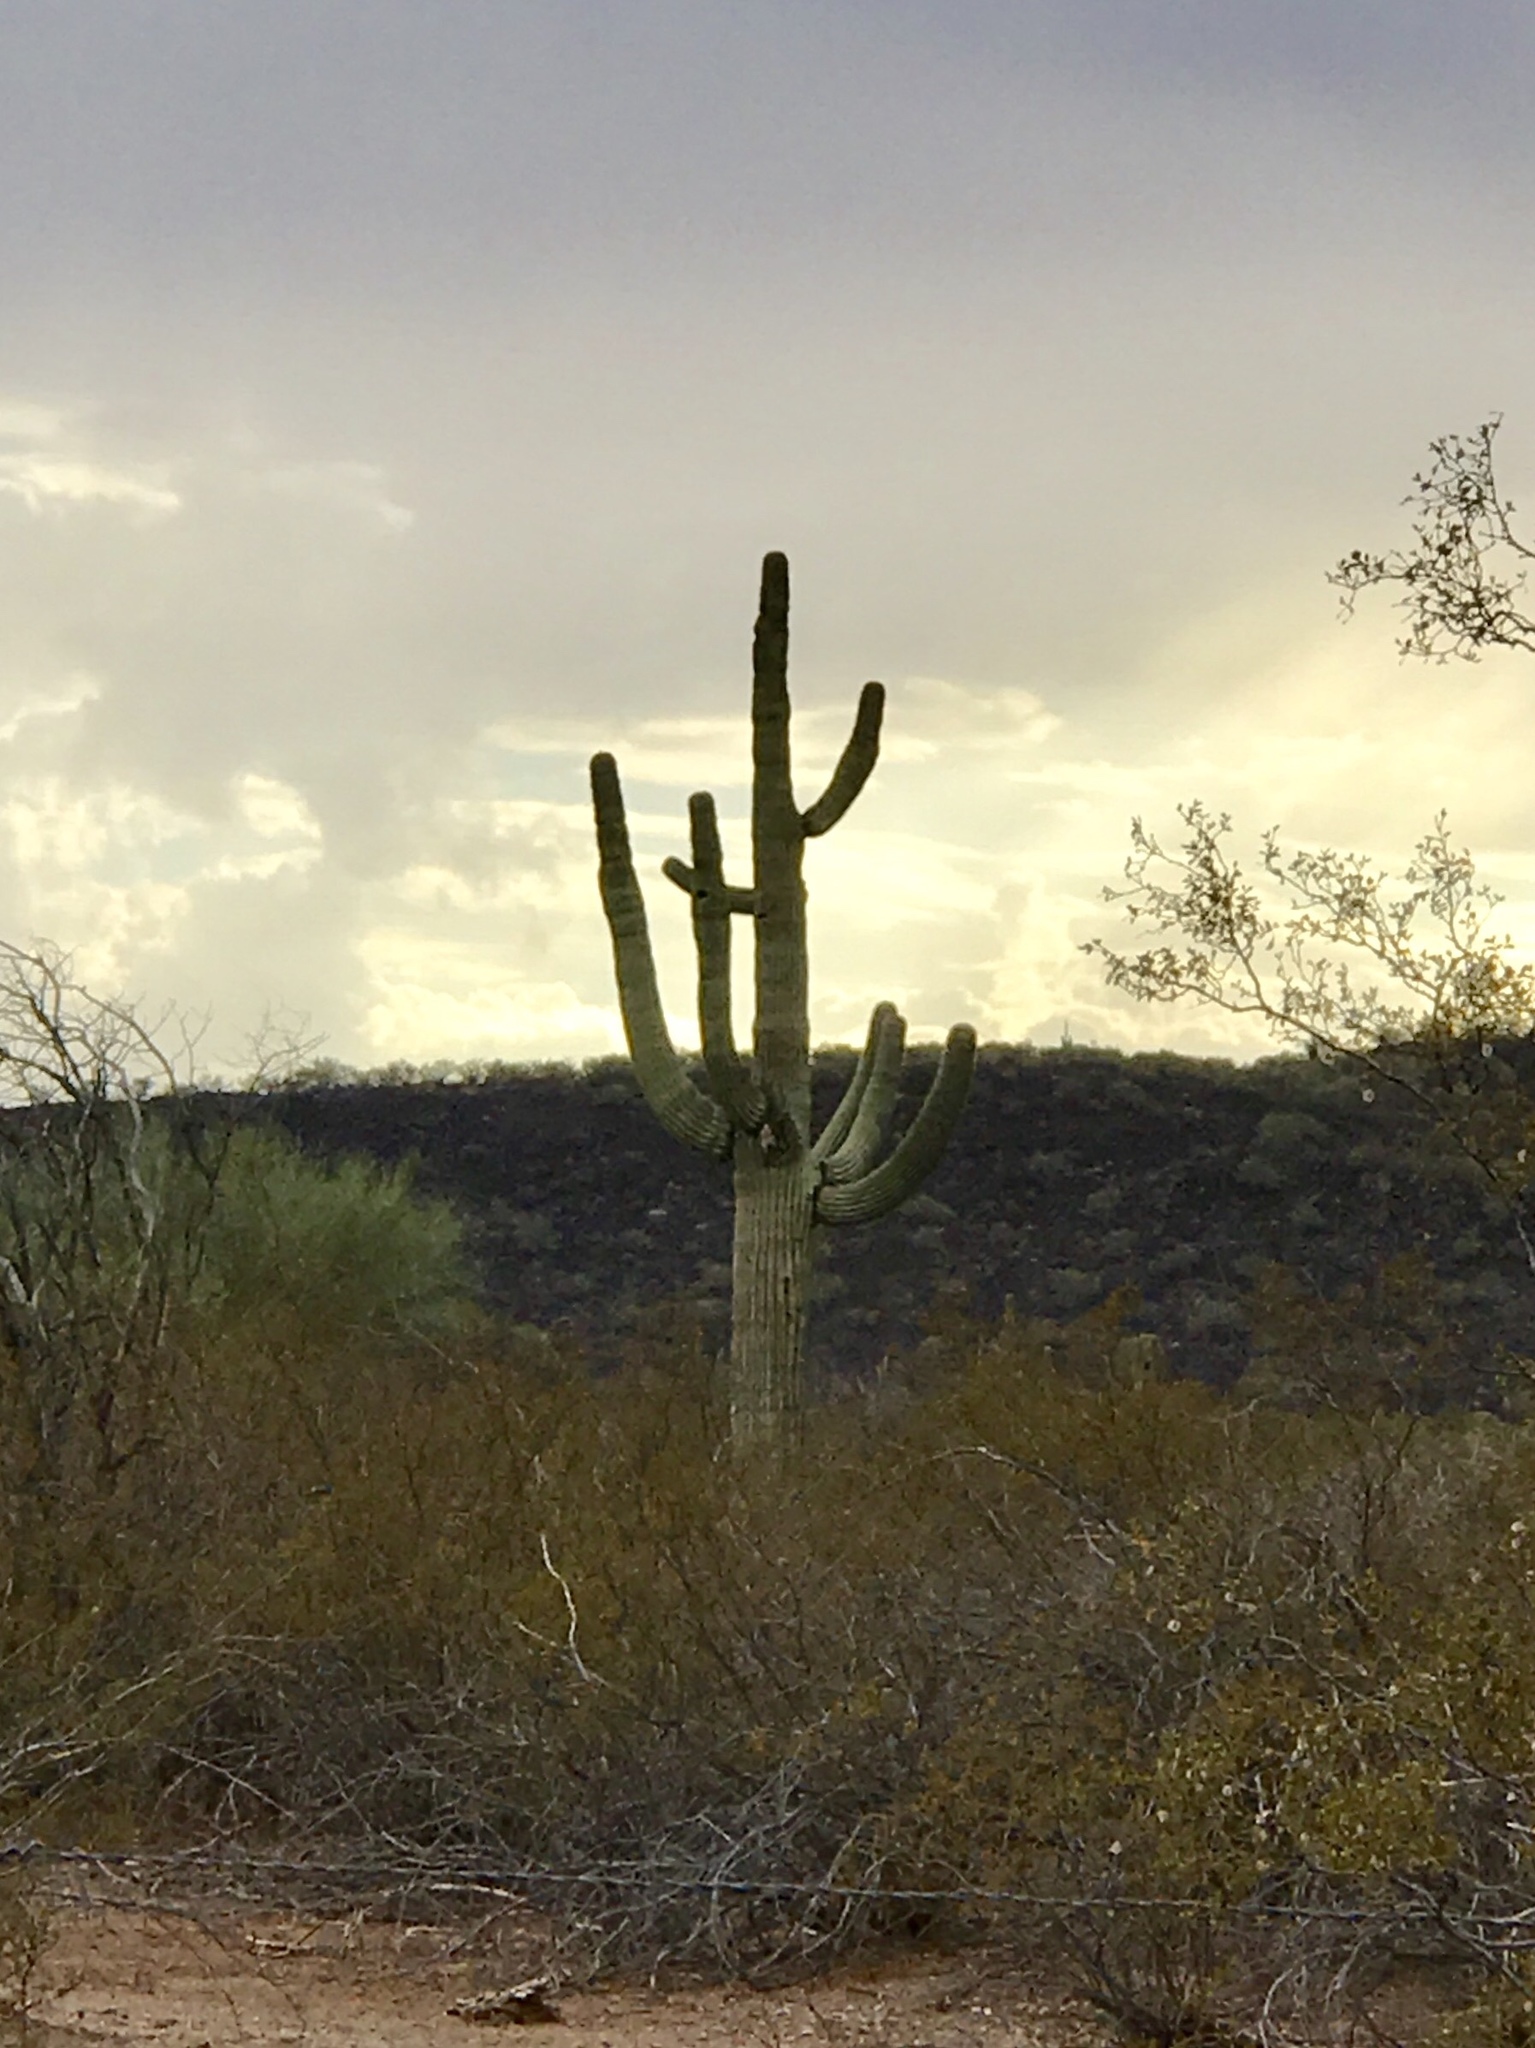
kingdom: Plantae
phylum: Tracheophyta
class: Magnoliopsida
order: Caryophyllales
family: Cactaceae
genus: Carnegiea
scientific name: Carnegiea gigantea
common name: Saguaro
